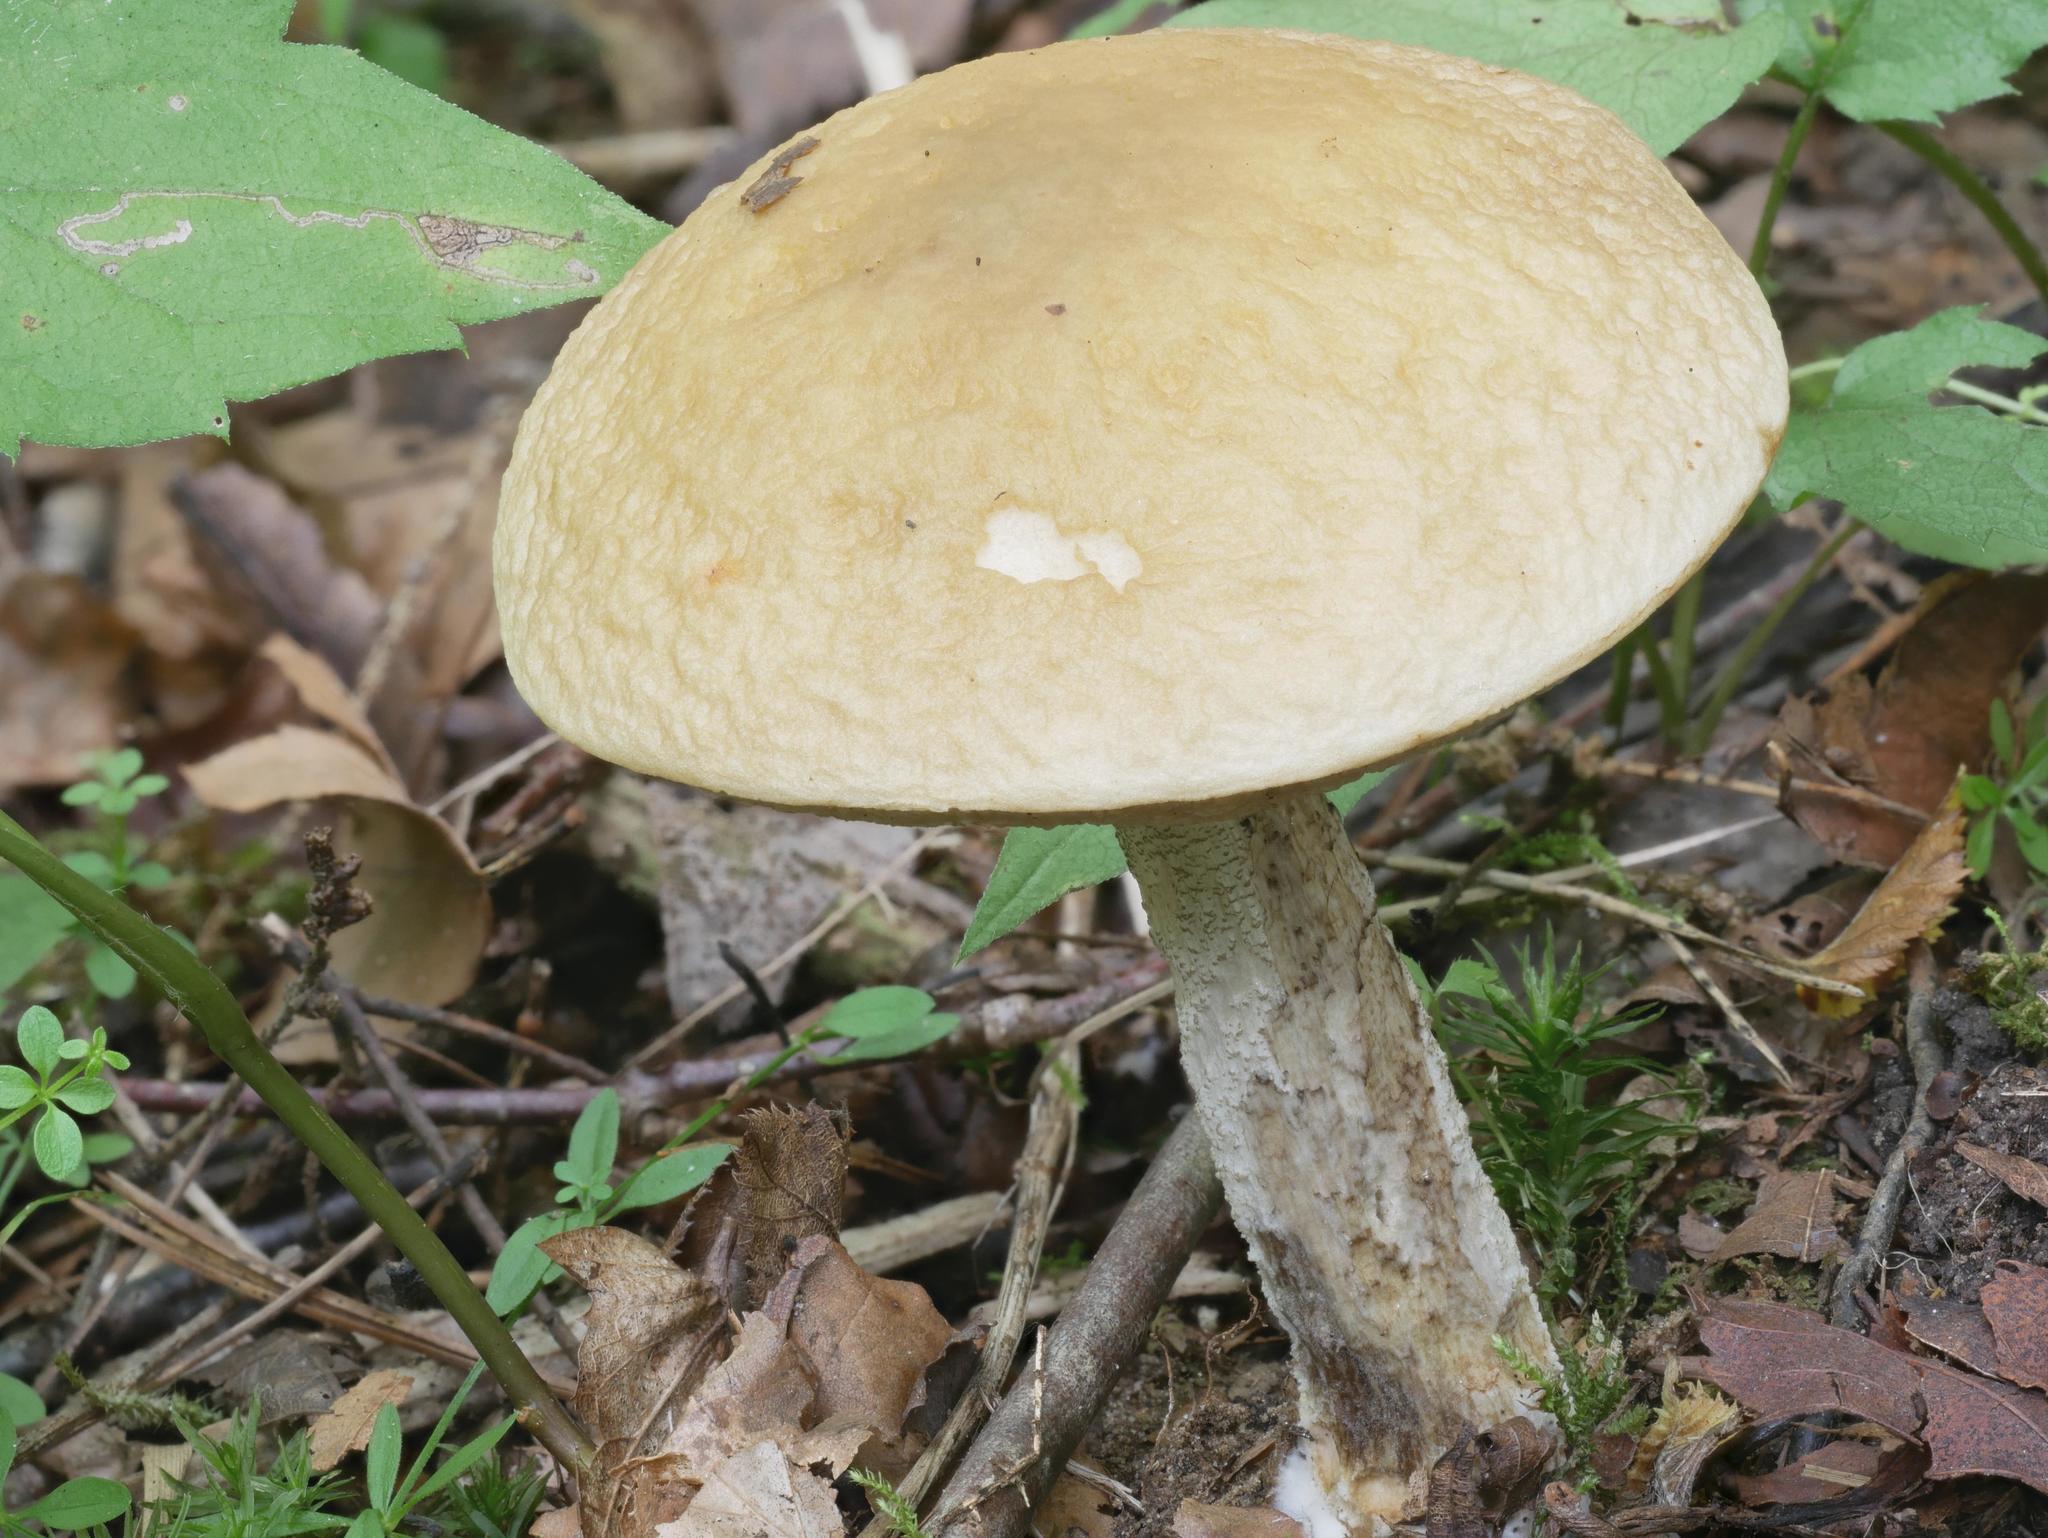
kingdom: Fungi
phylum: Basidiomycota
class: Agaricomycetes
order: Boletales
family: Boletaceae
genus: Leccinellum
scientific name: Leccinellum luteum
